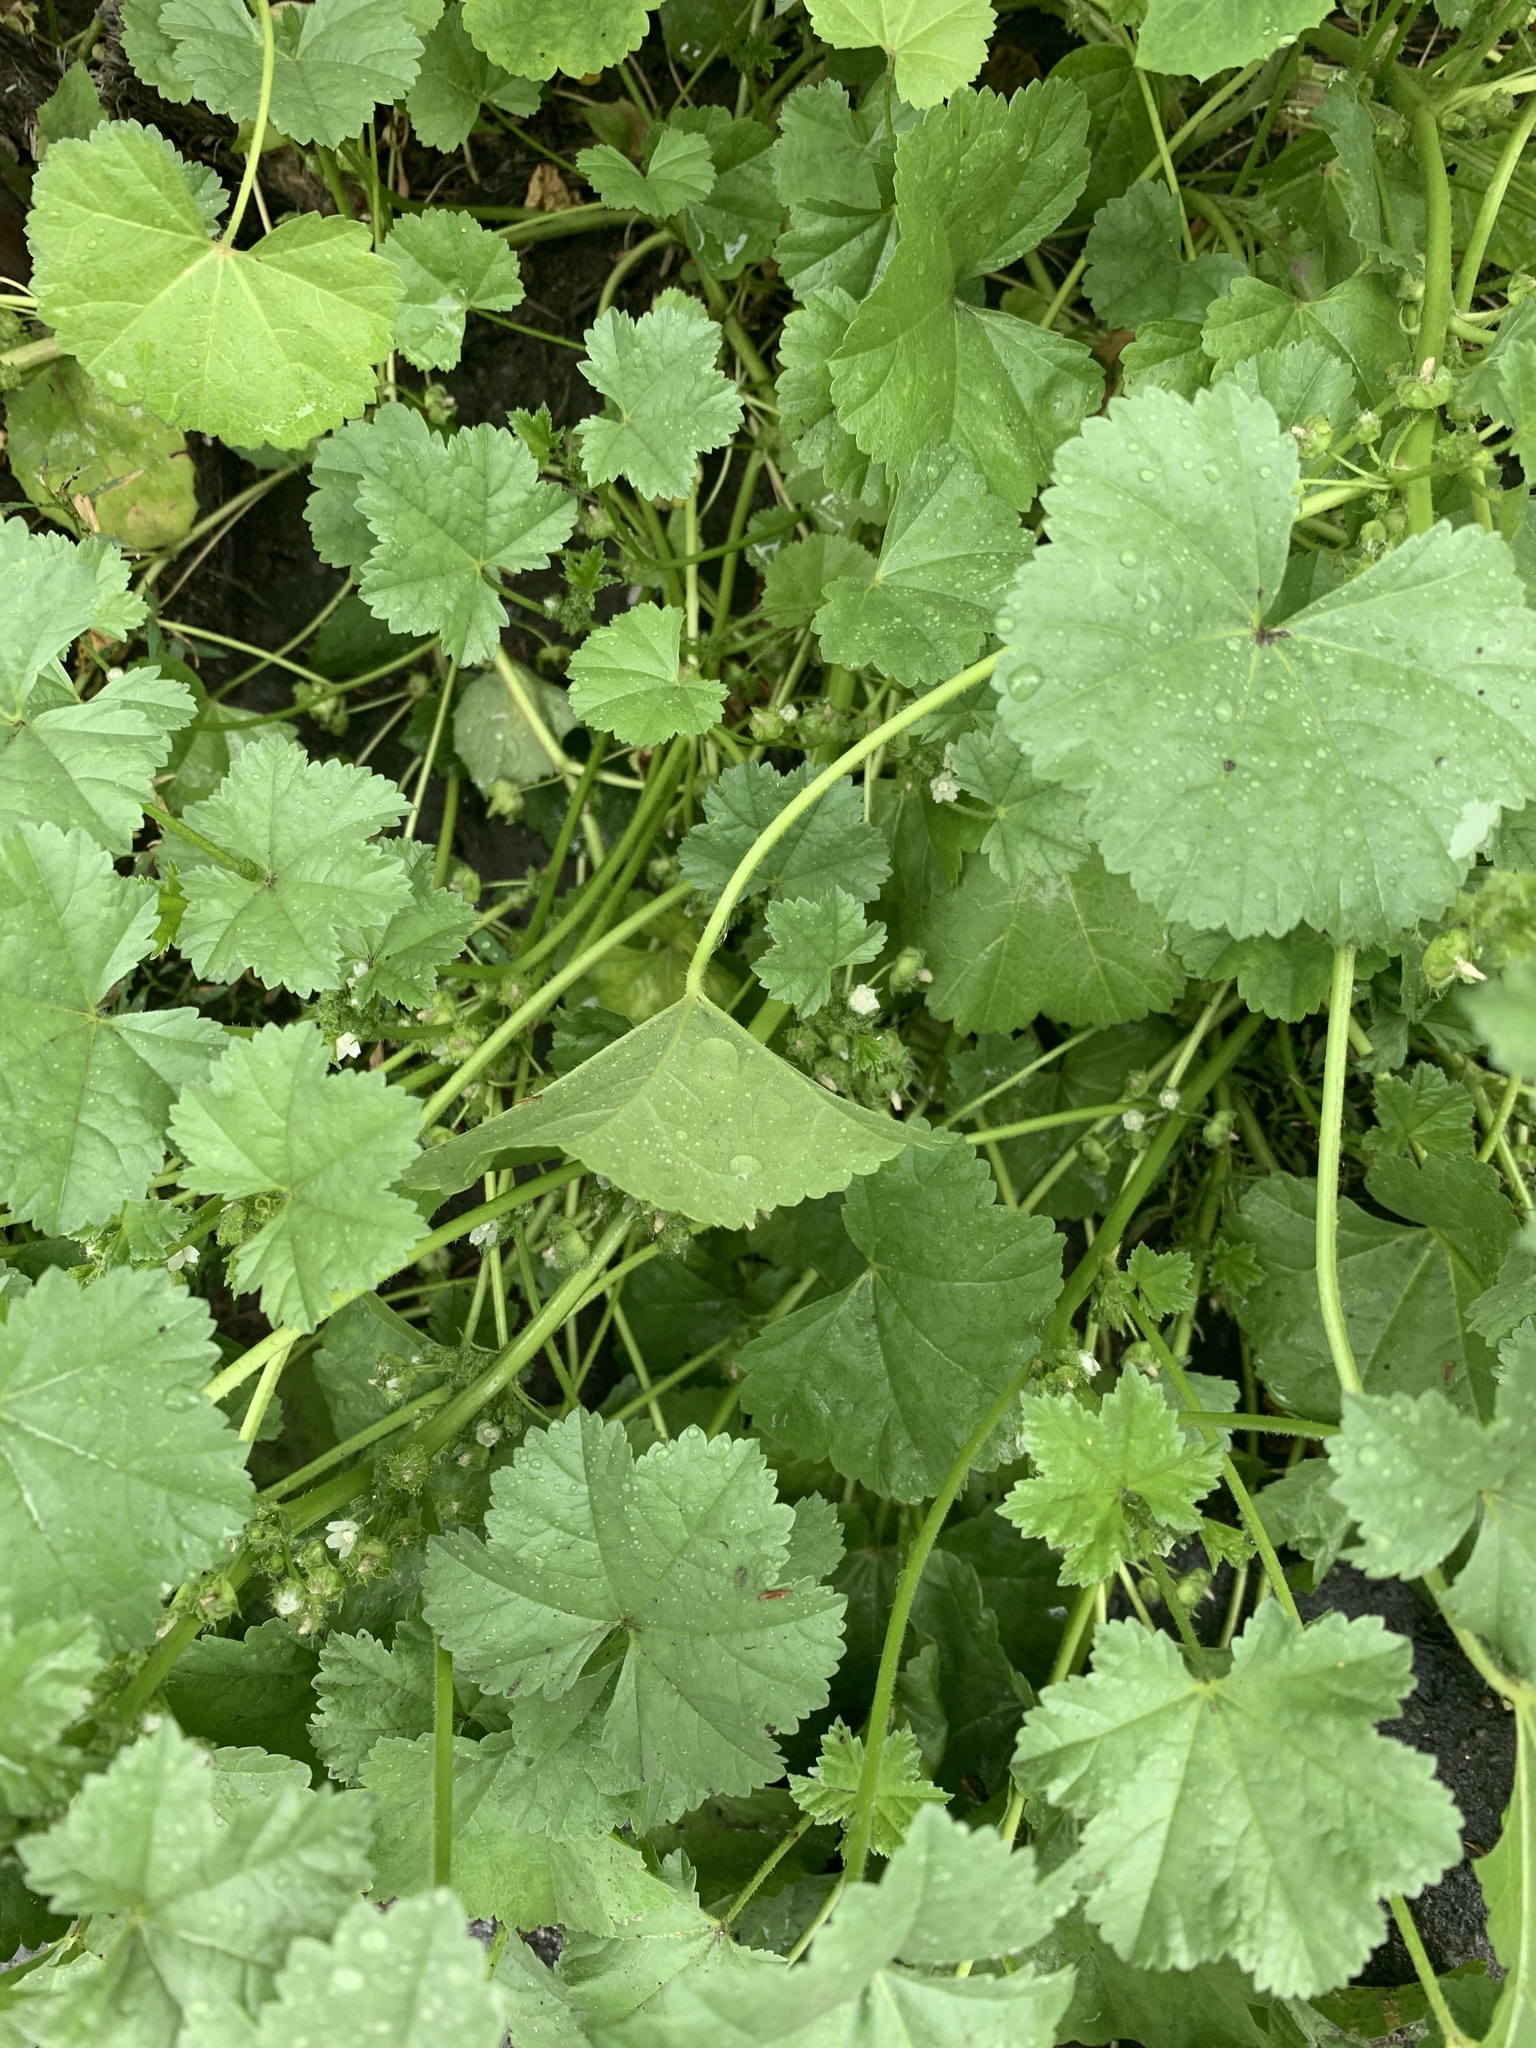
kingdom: Plantae
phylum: Tracheophyta
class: Magnoliopsida
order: Malvales
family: Malvaceae
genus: Malva
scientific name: Malva pusilla
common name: Small mallow
